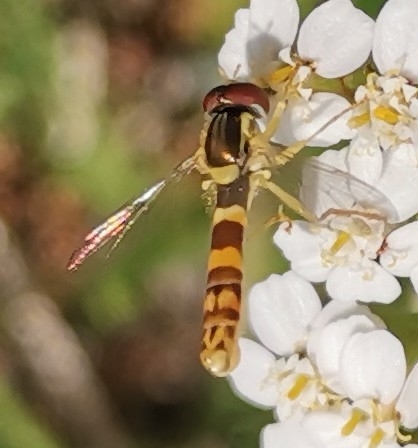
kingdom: Animalia
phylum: Arthropoda
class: Insecta
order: Diptera
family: Syrphidae
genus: Sphaerophoria
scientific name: Sphaerophoria
